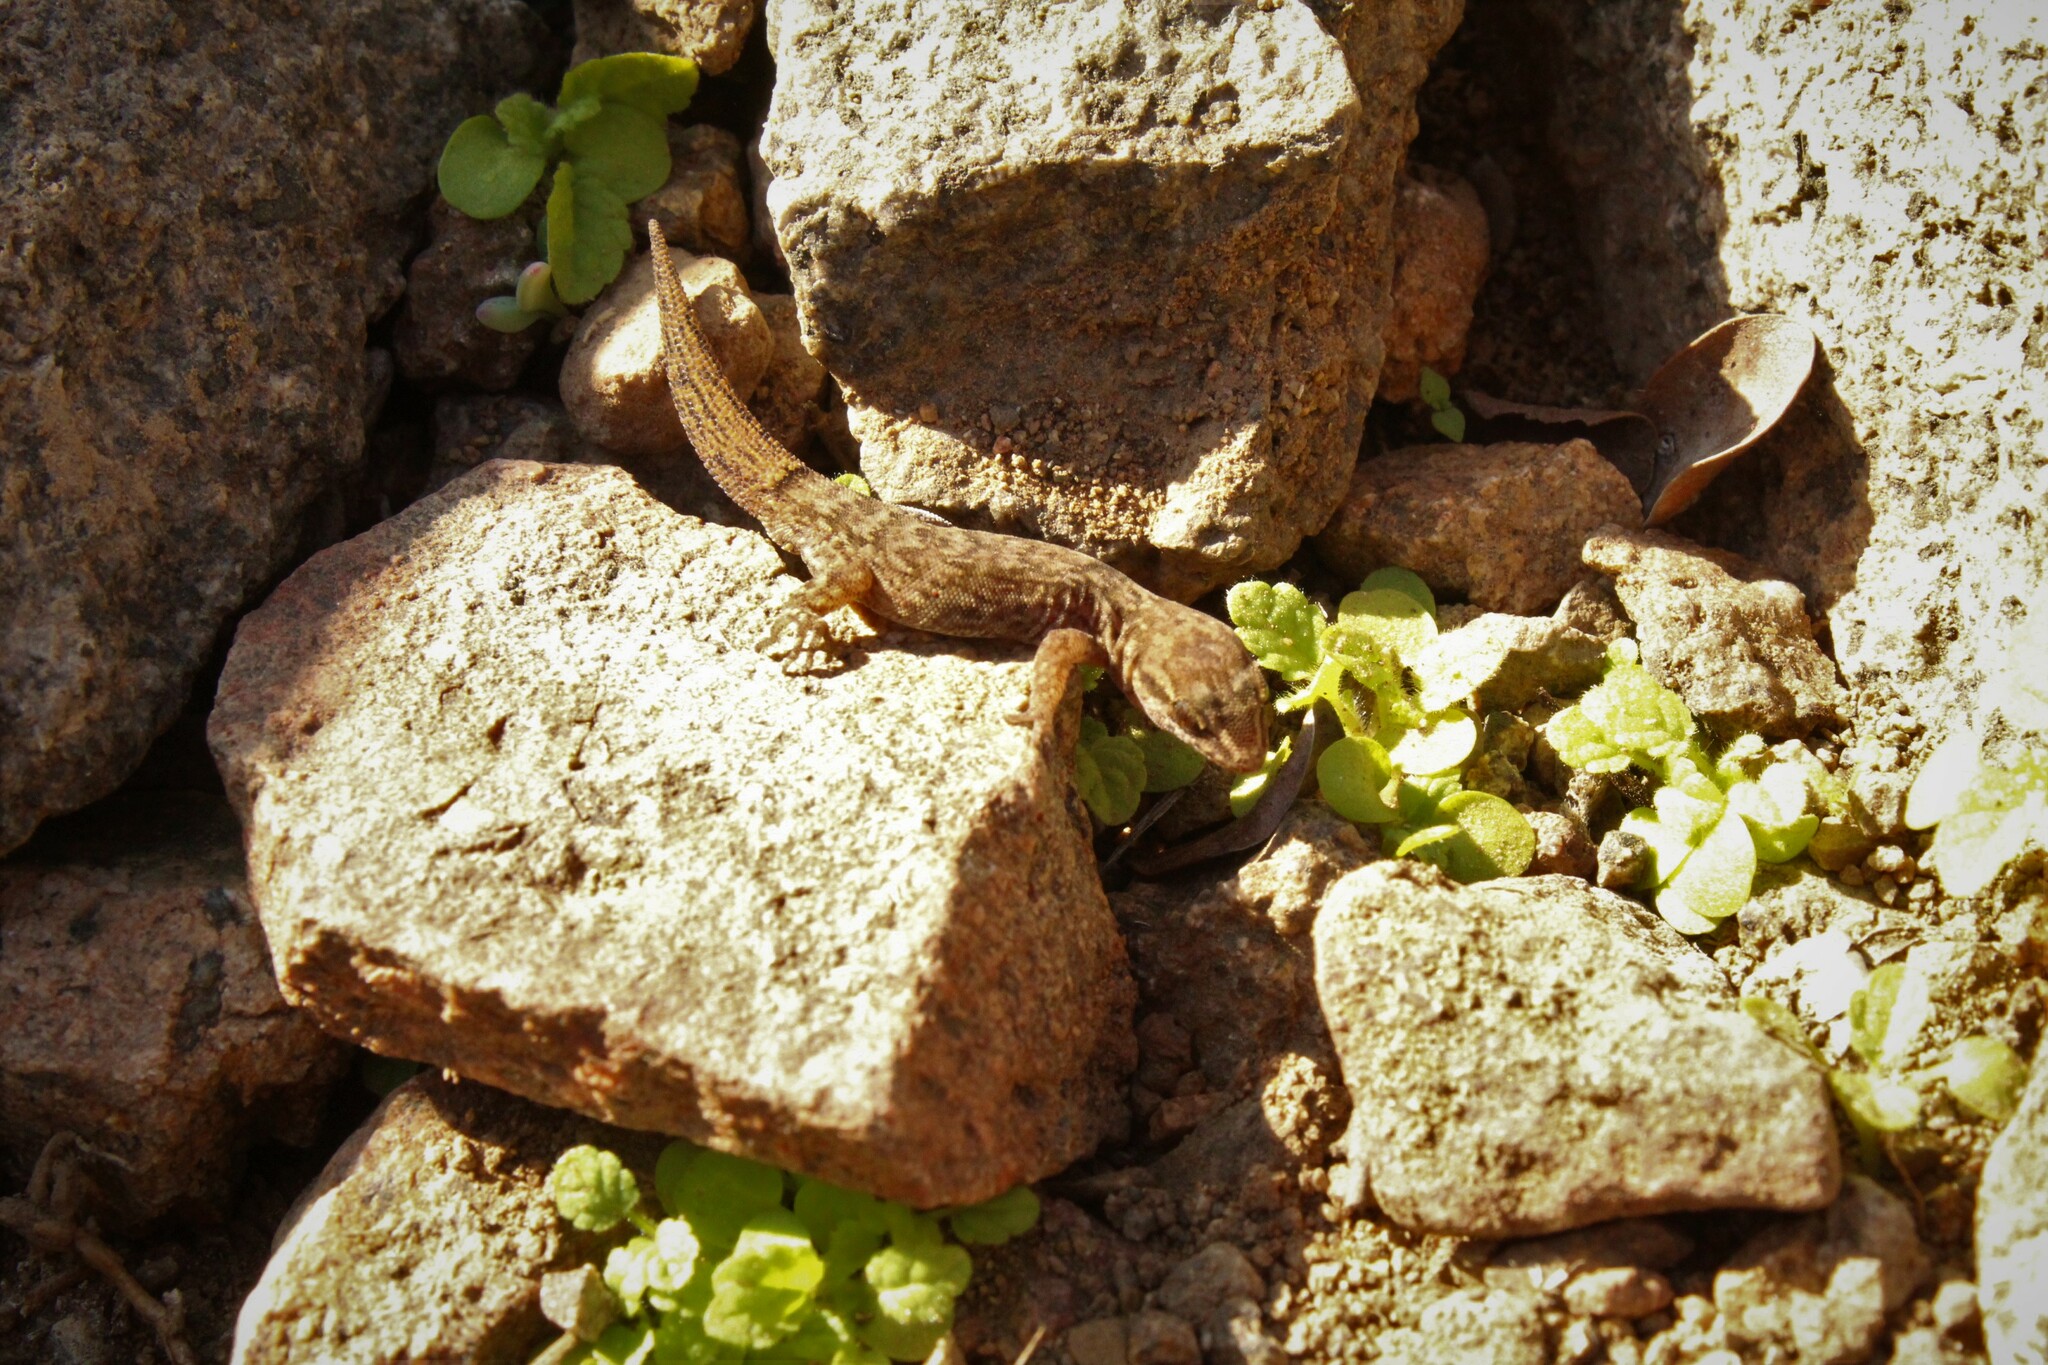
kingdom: Animalia
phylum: Chordata
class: Squamata
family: Phyllodactylidae
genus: Garthia
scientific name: Garthia gaudichaudii
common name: Chilean marked gecko
